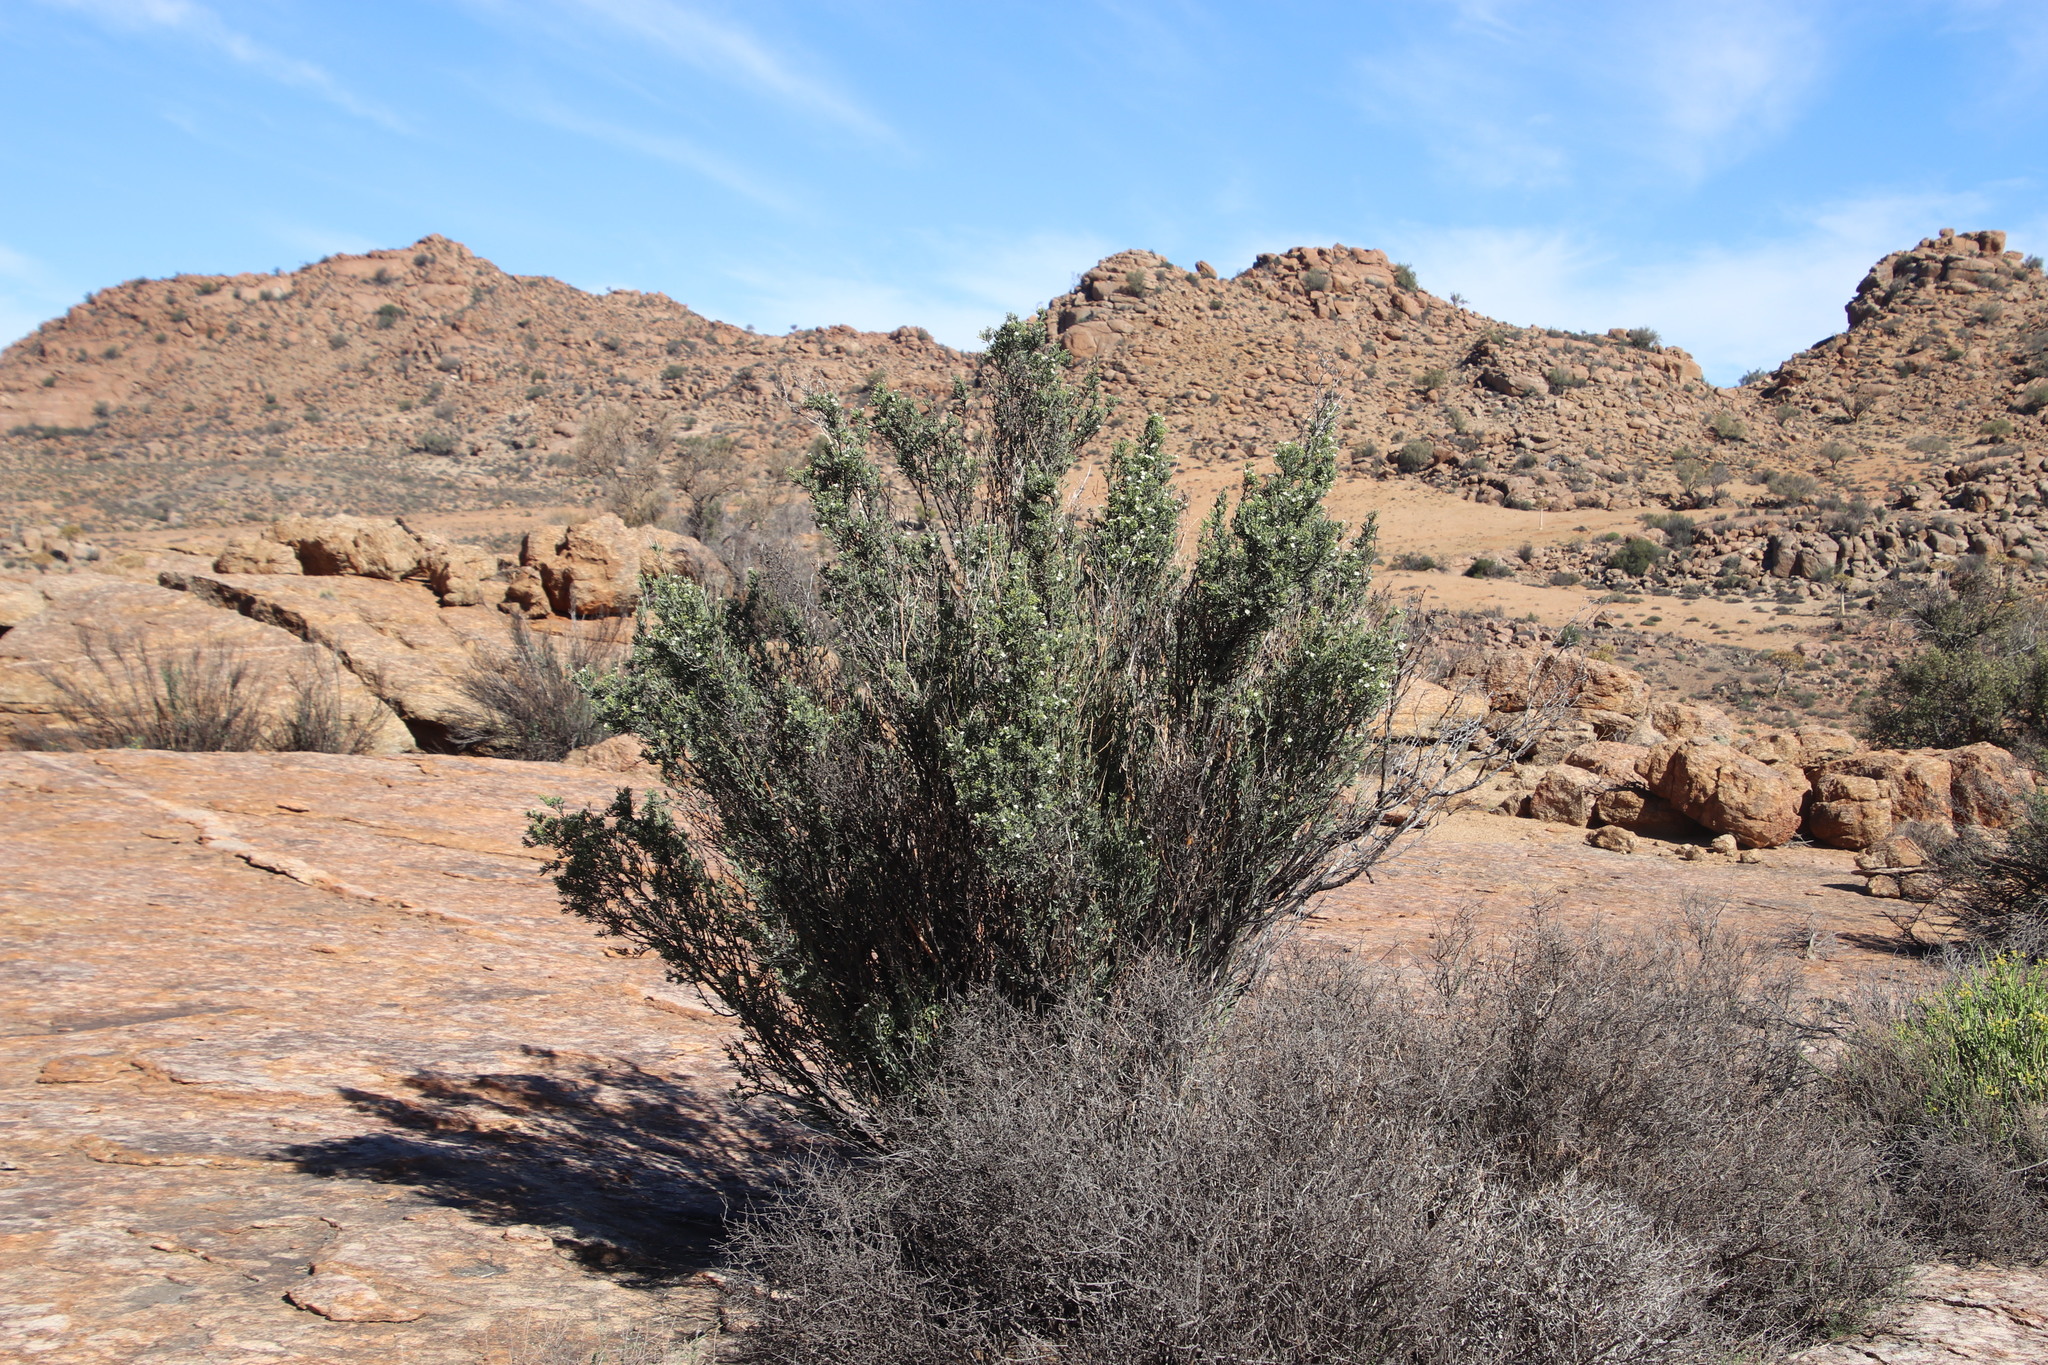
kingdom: Plantae
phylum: Tracheophyta
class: Magnoliopsida
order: Solanales
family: Montiniaceae
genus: Montinia
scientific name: Montinia caryophyllacea
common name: Wild clove-bush
